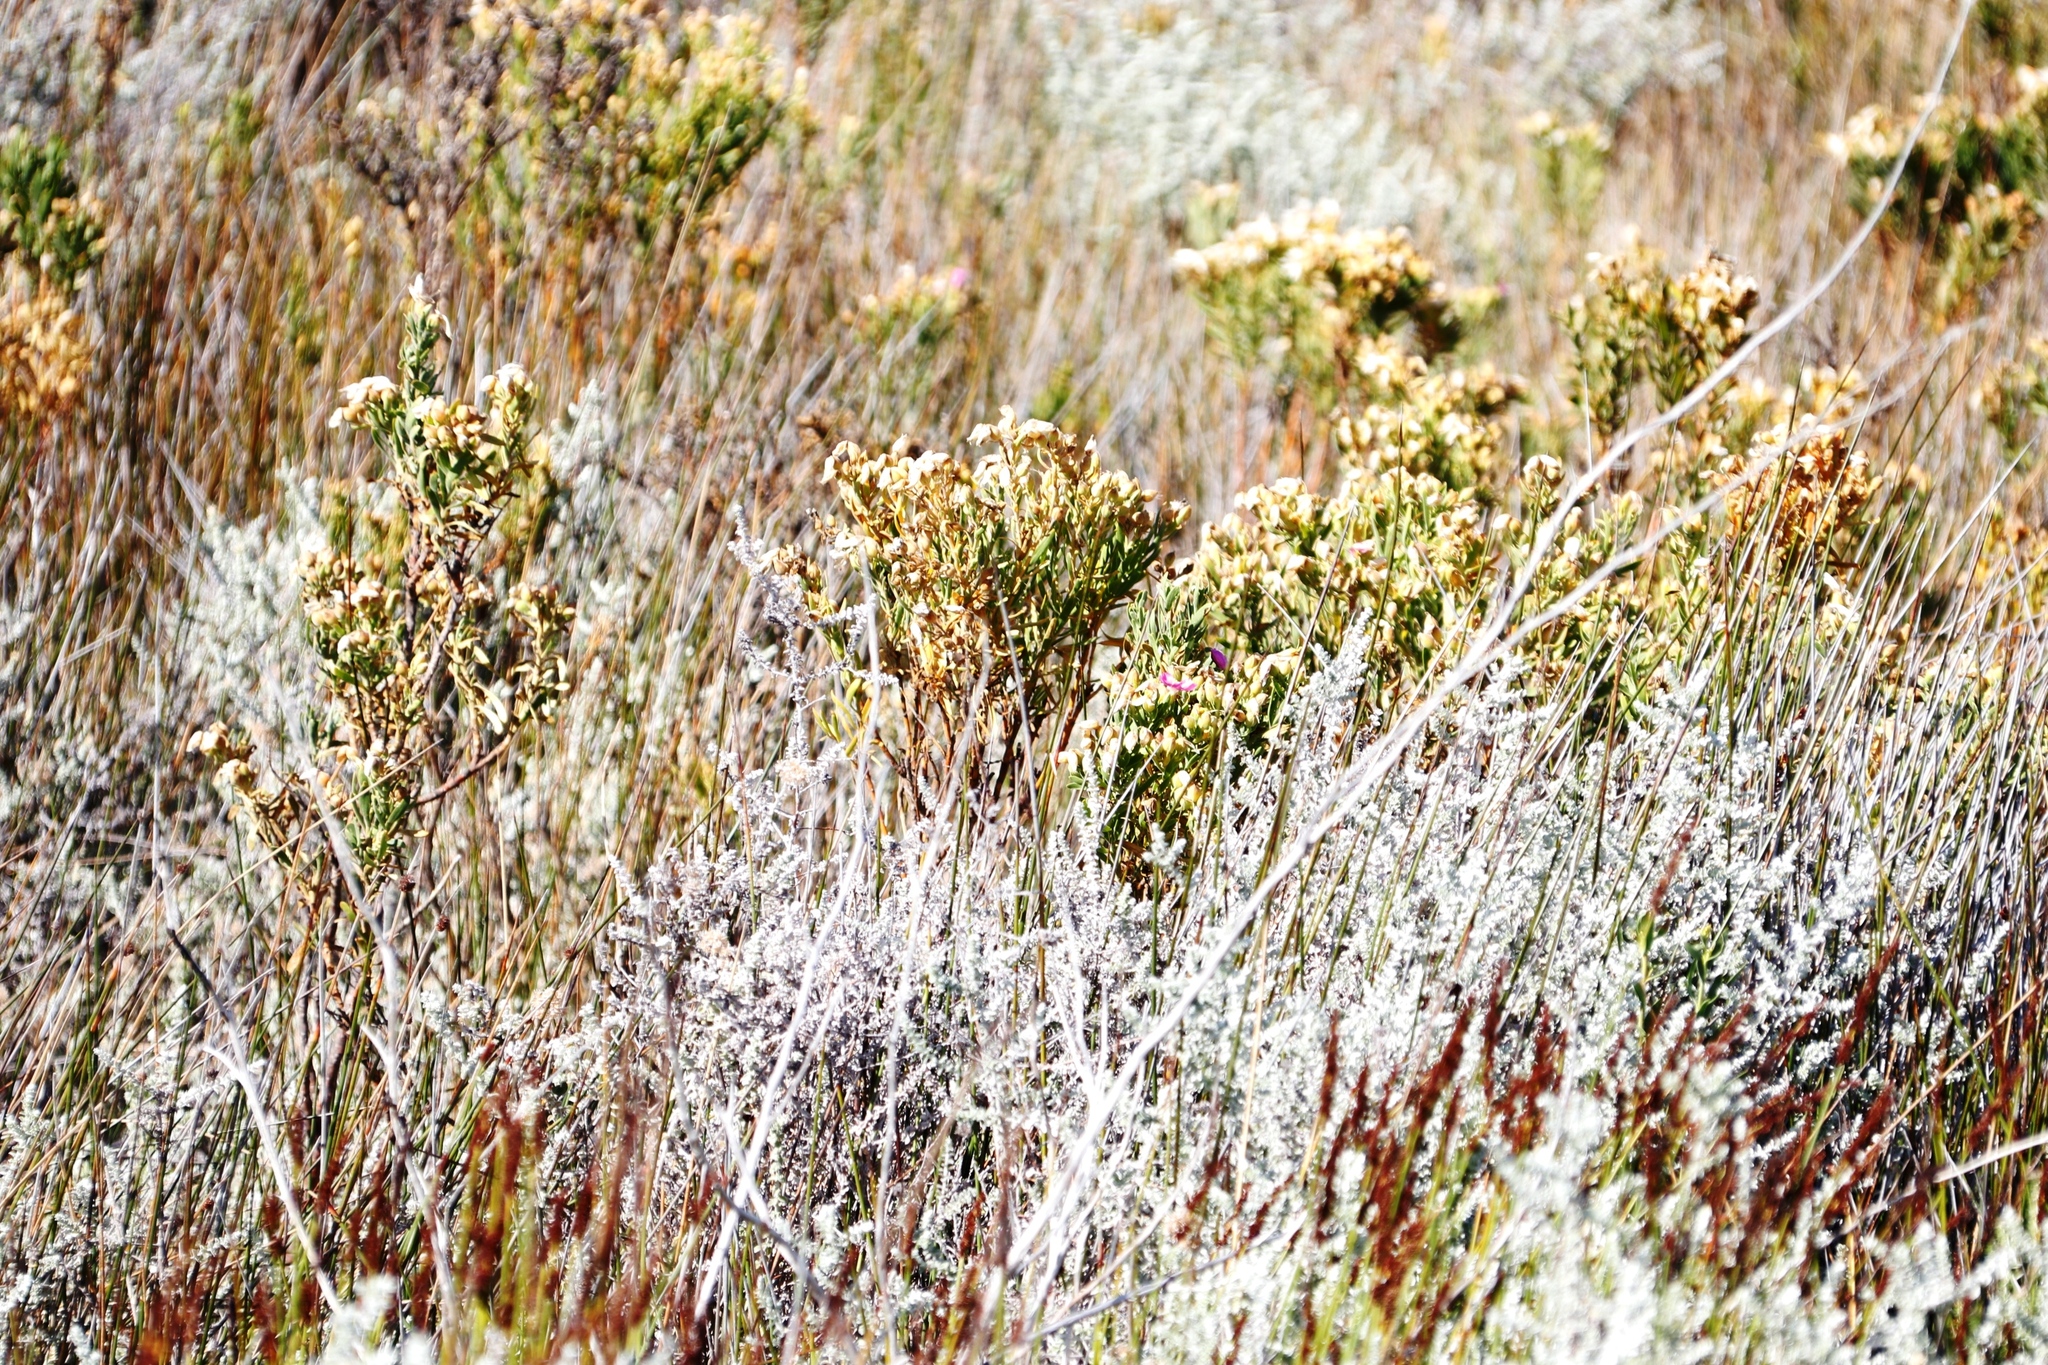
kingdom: Plantae
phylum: Tracheophyta
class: Magnoliopsida
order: Gentianales
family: Gentianaceae
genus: Orphium
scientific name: Orphium frutescens
